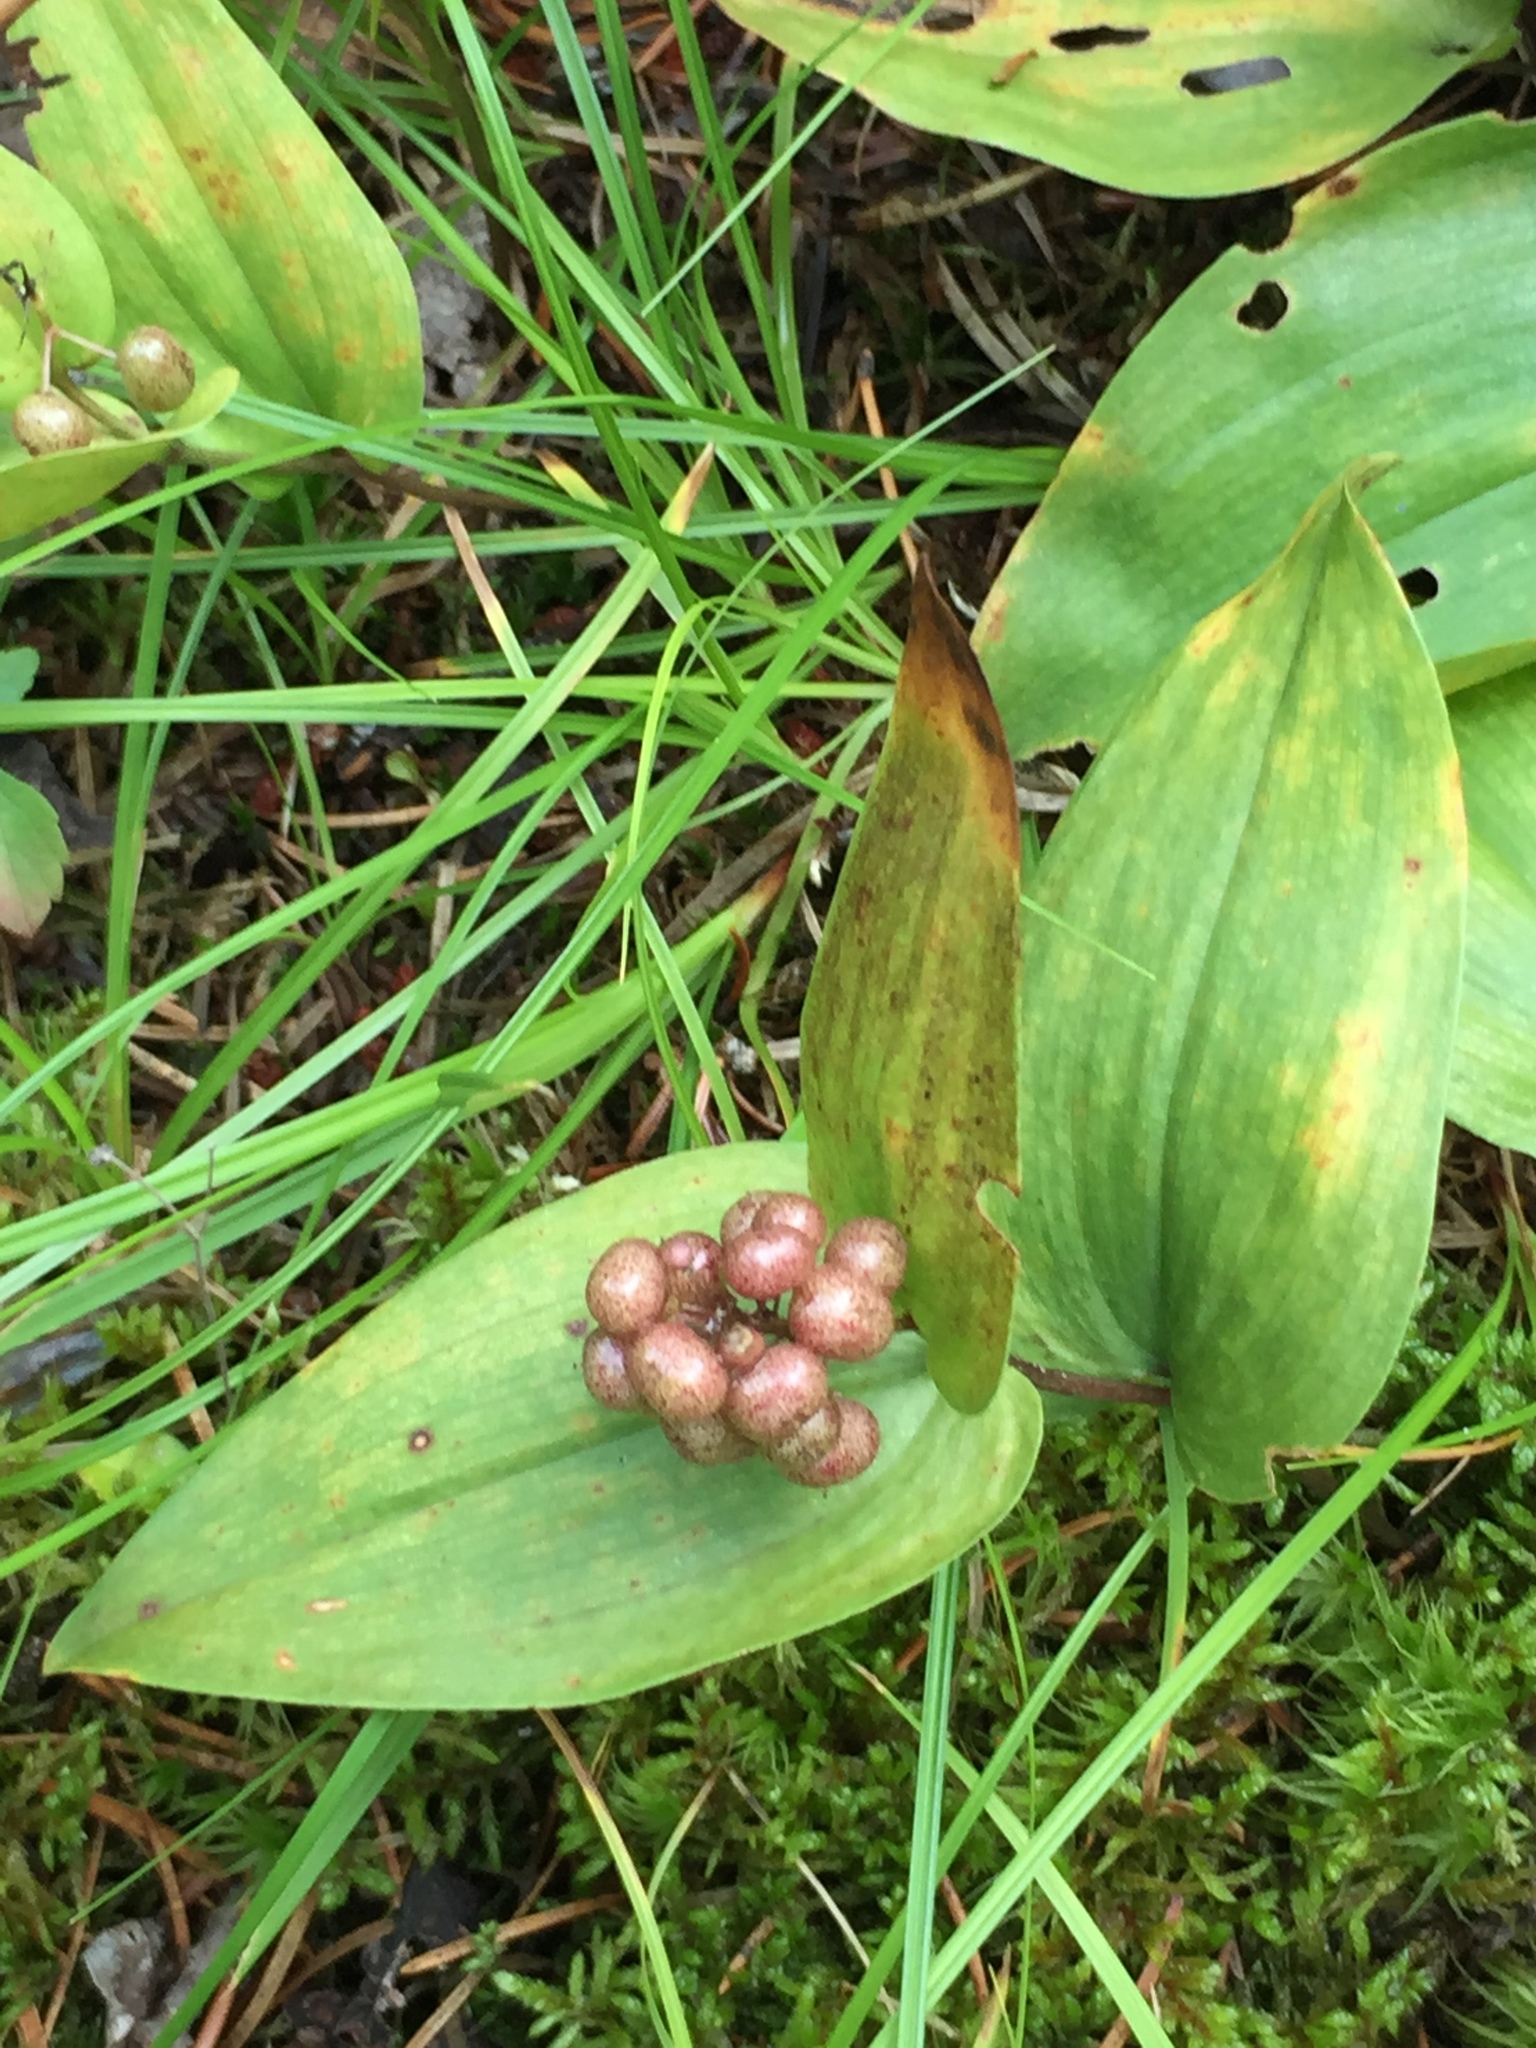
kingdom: Plantae
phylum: Tracheophyta
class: Liliopsida
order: Asparagales
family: Asparagaceae
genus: Maianthemum
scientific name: Maianthemum canadense
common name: False lily-of-the-valley
